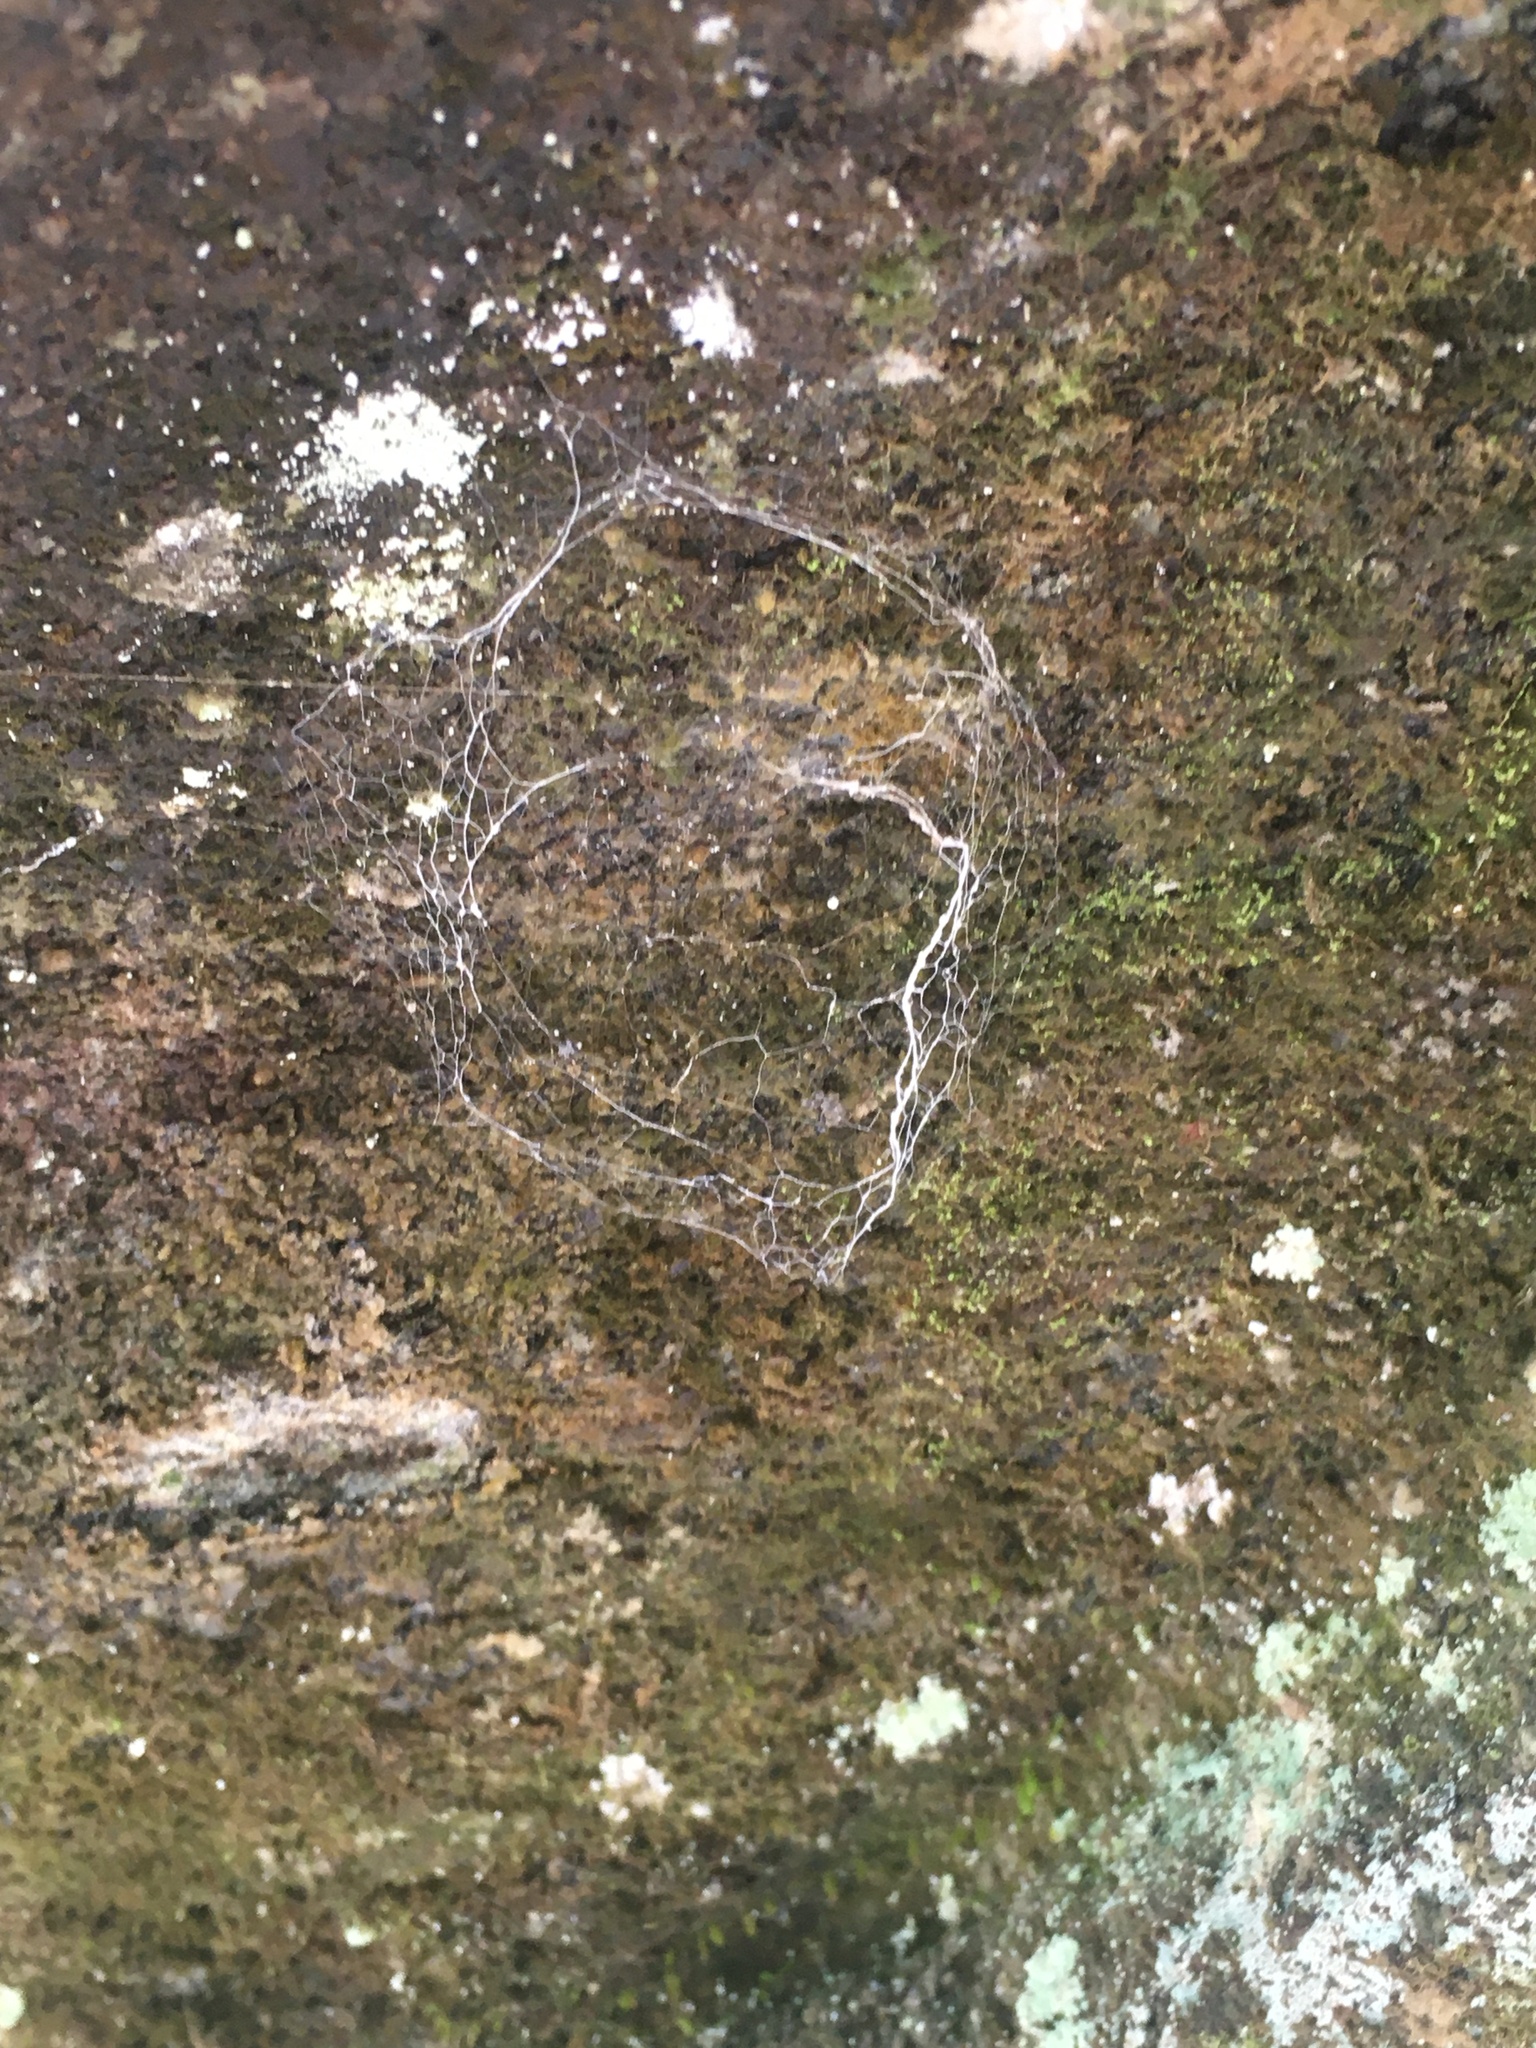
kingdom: Animalia
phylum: Arthropoda
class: Arachnida
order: Araneae
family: Hypochilidae
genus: Hypochilus
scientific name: Hypochilus pococki
